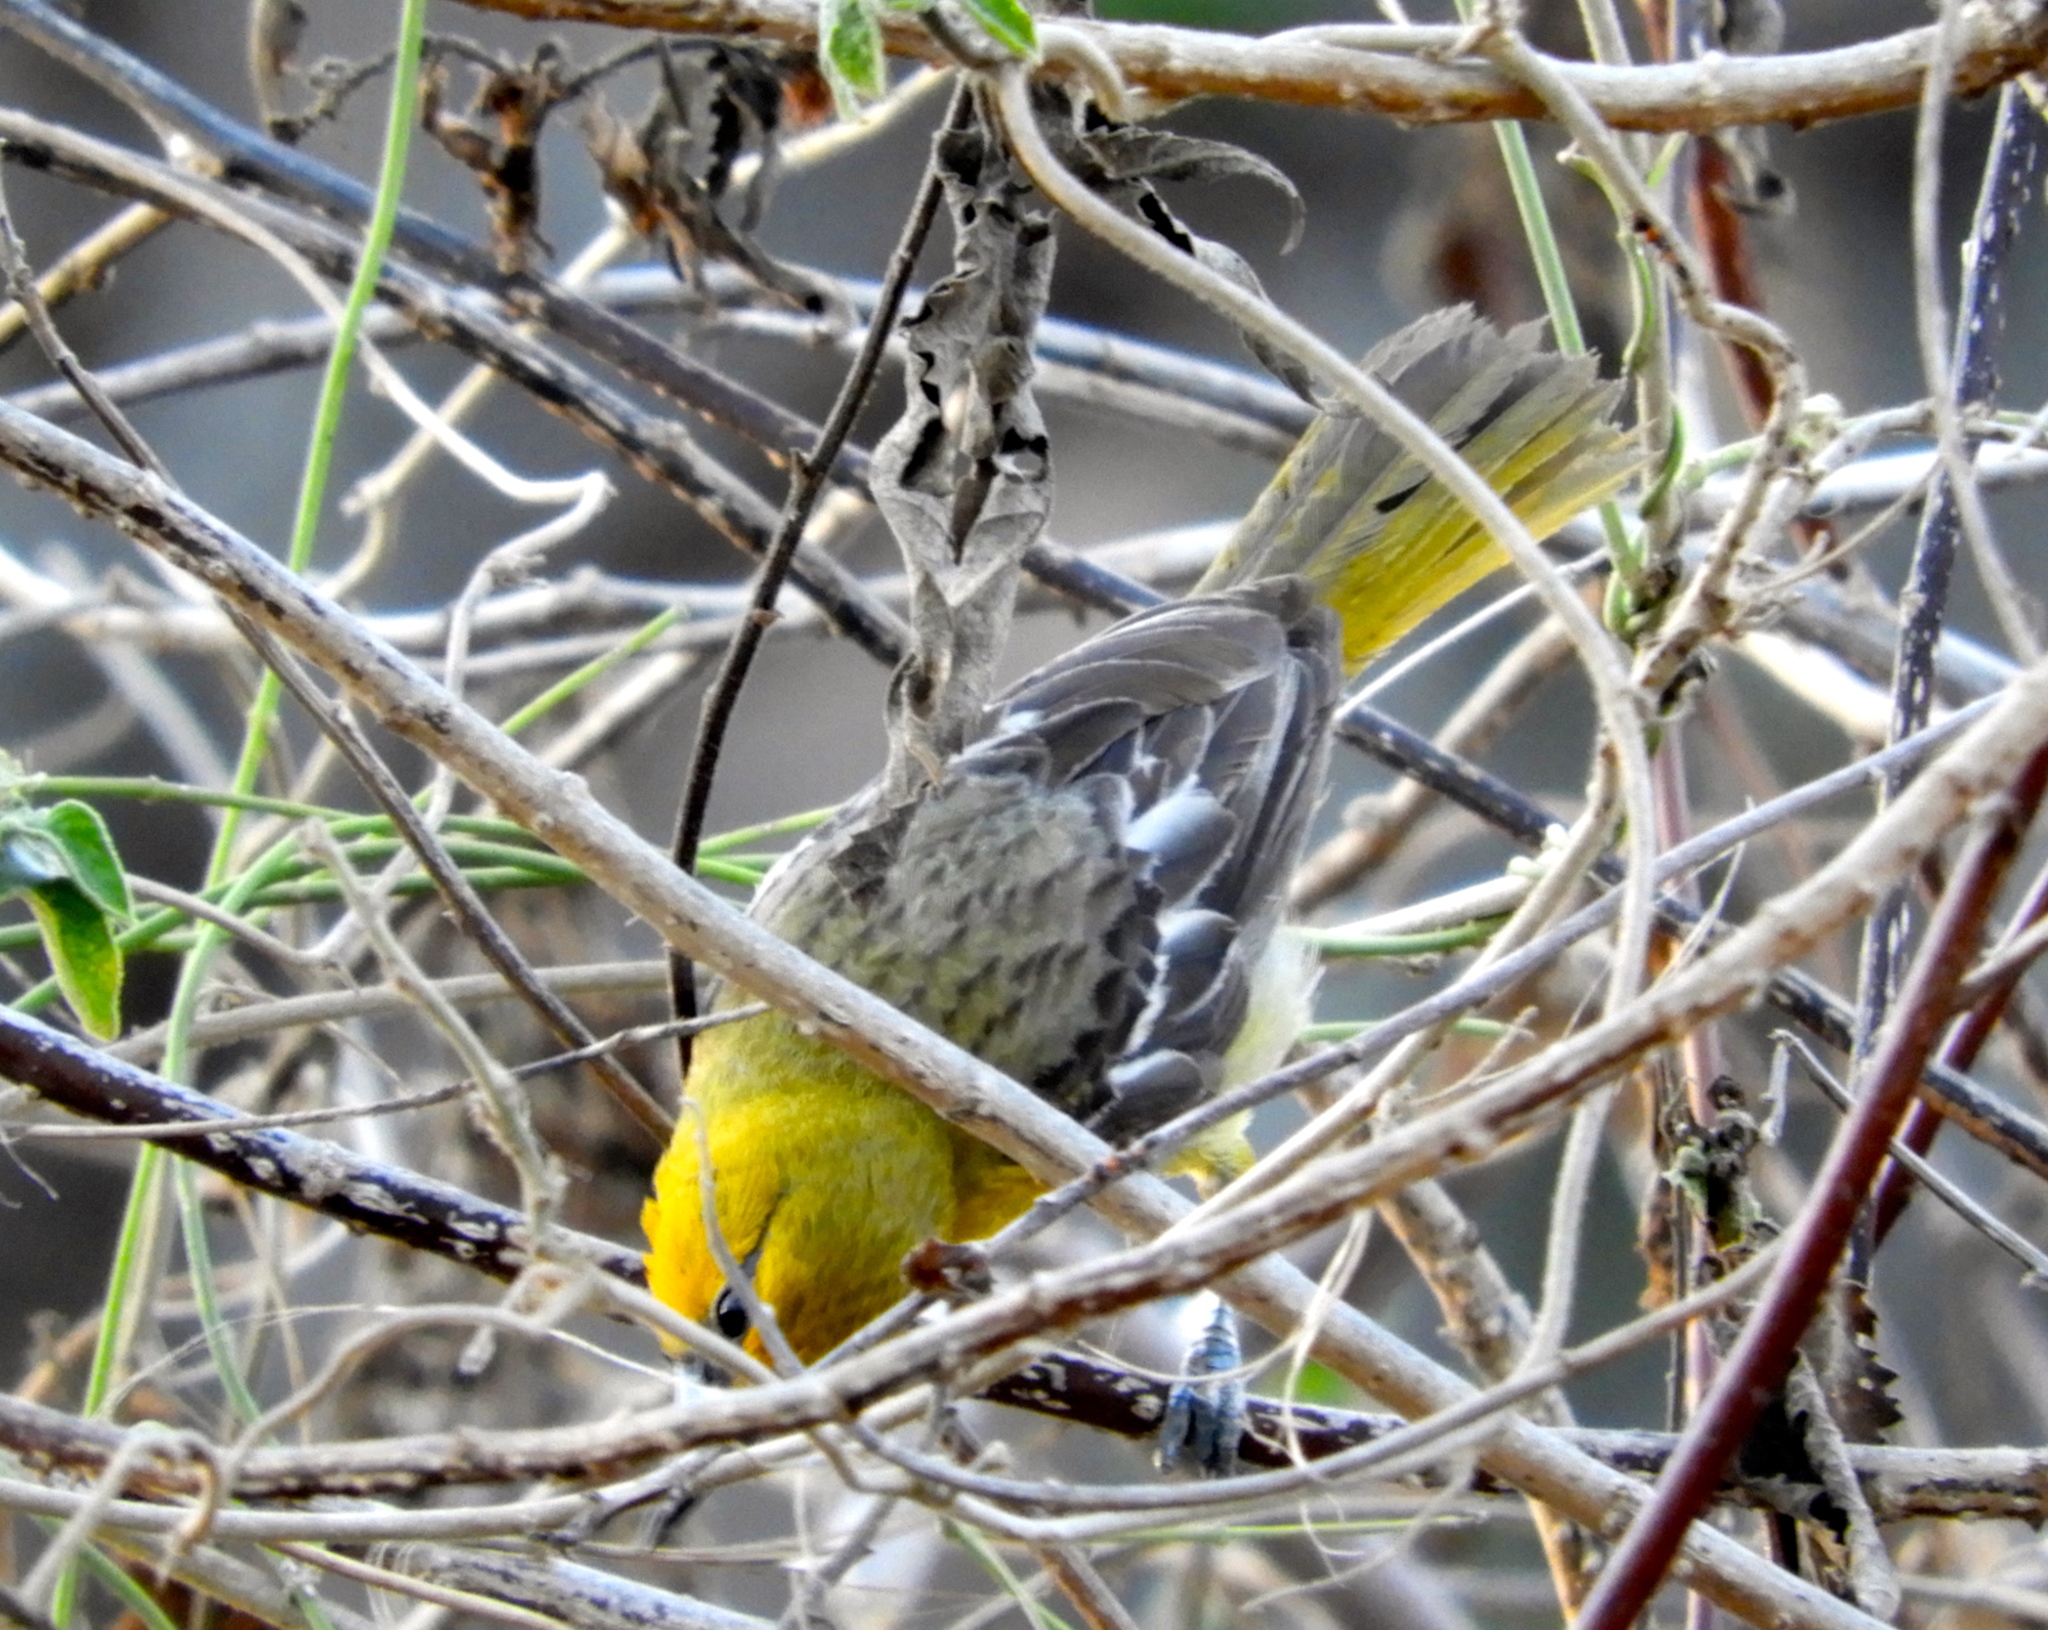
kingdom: Animalia
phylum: Chordata
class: Aves
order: Passeriformes
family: Icteridae
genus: Icterus
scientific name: Icterus pustulatus
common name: Streak-backed oriole
